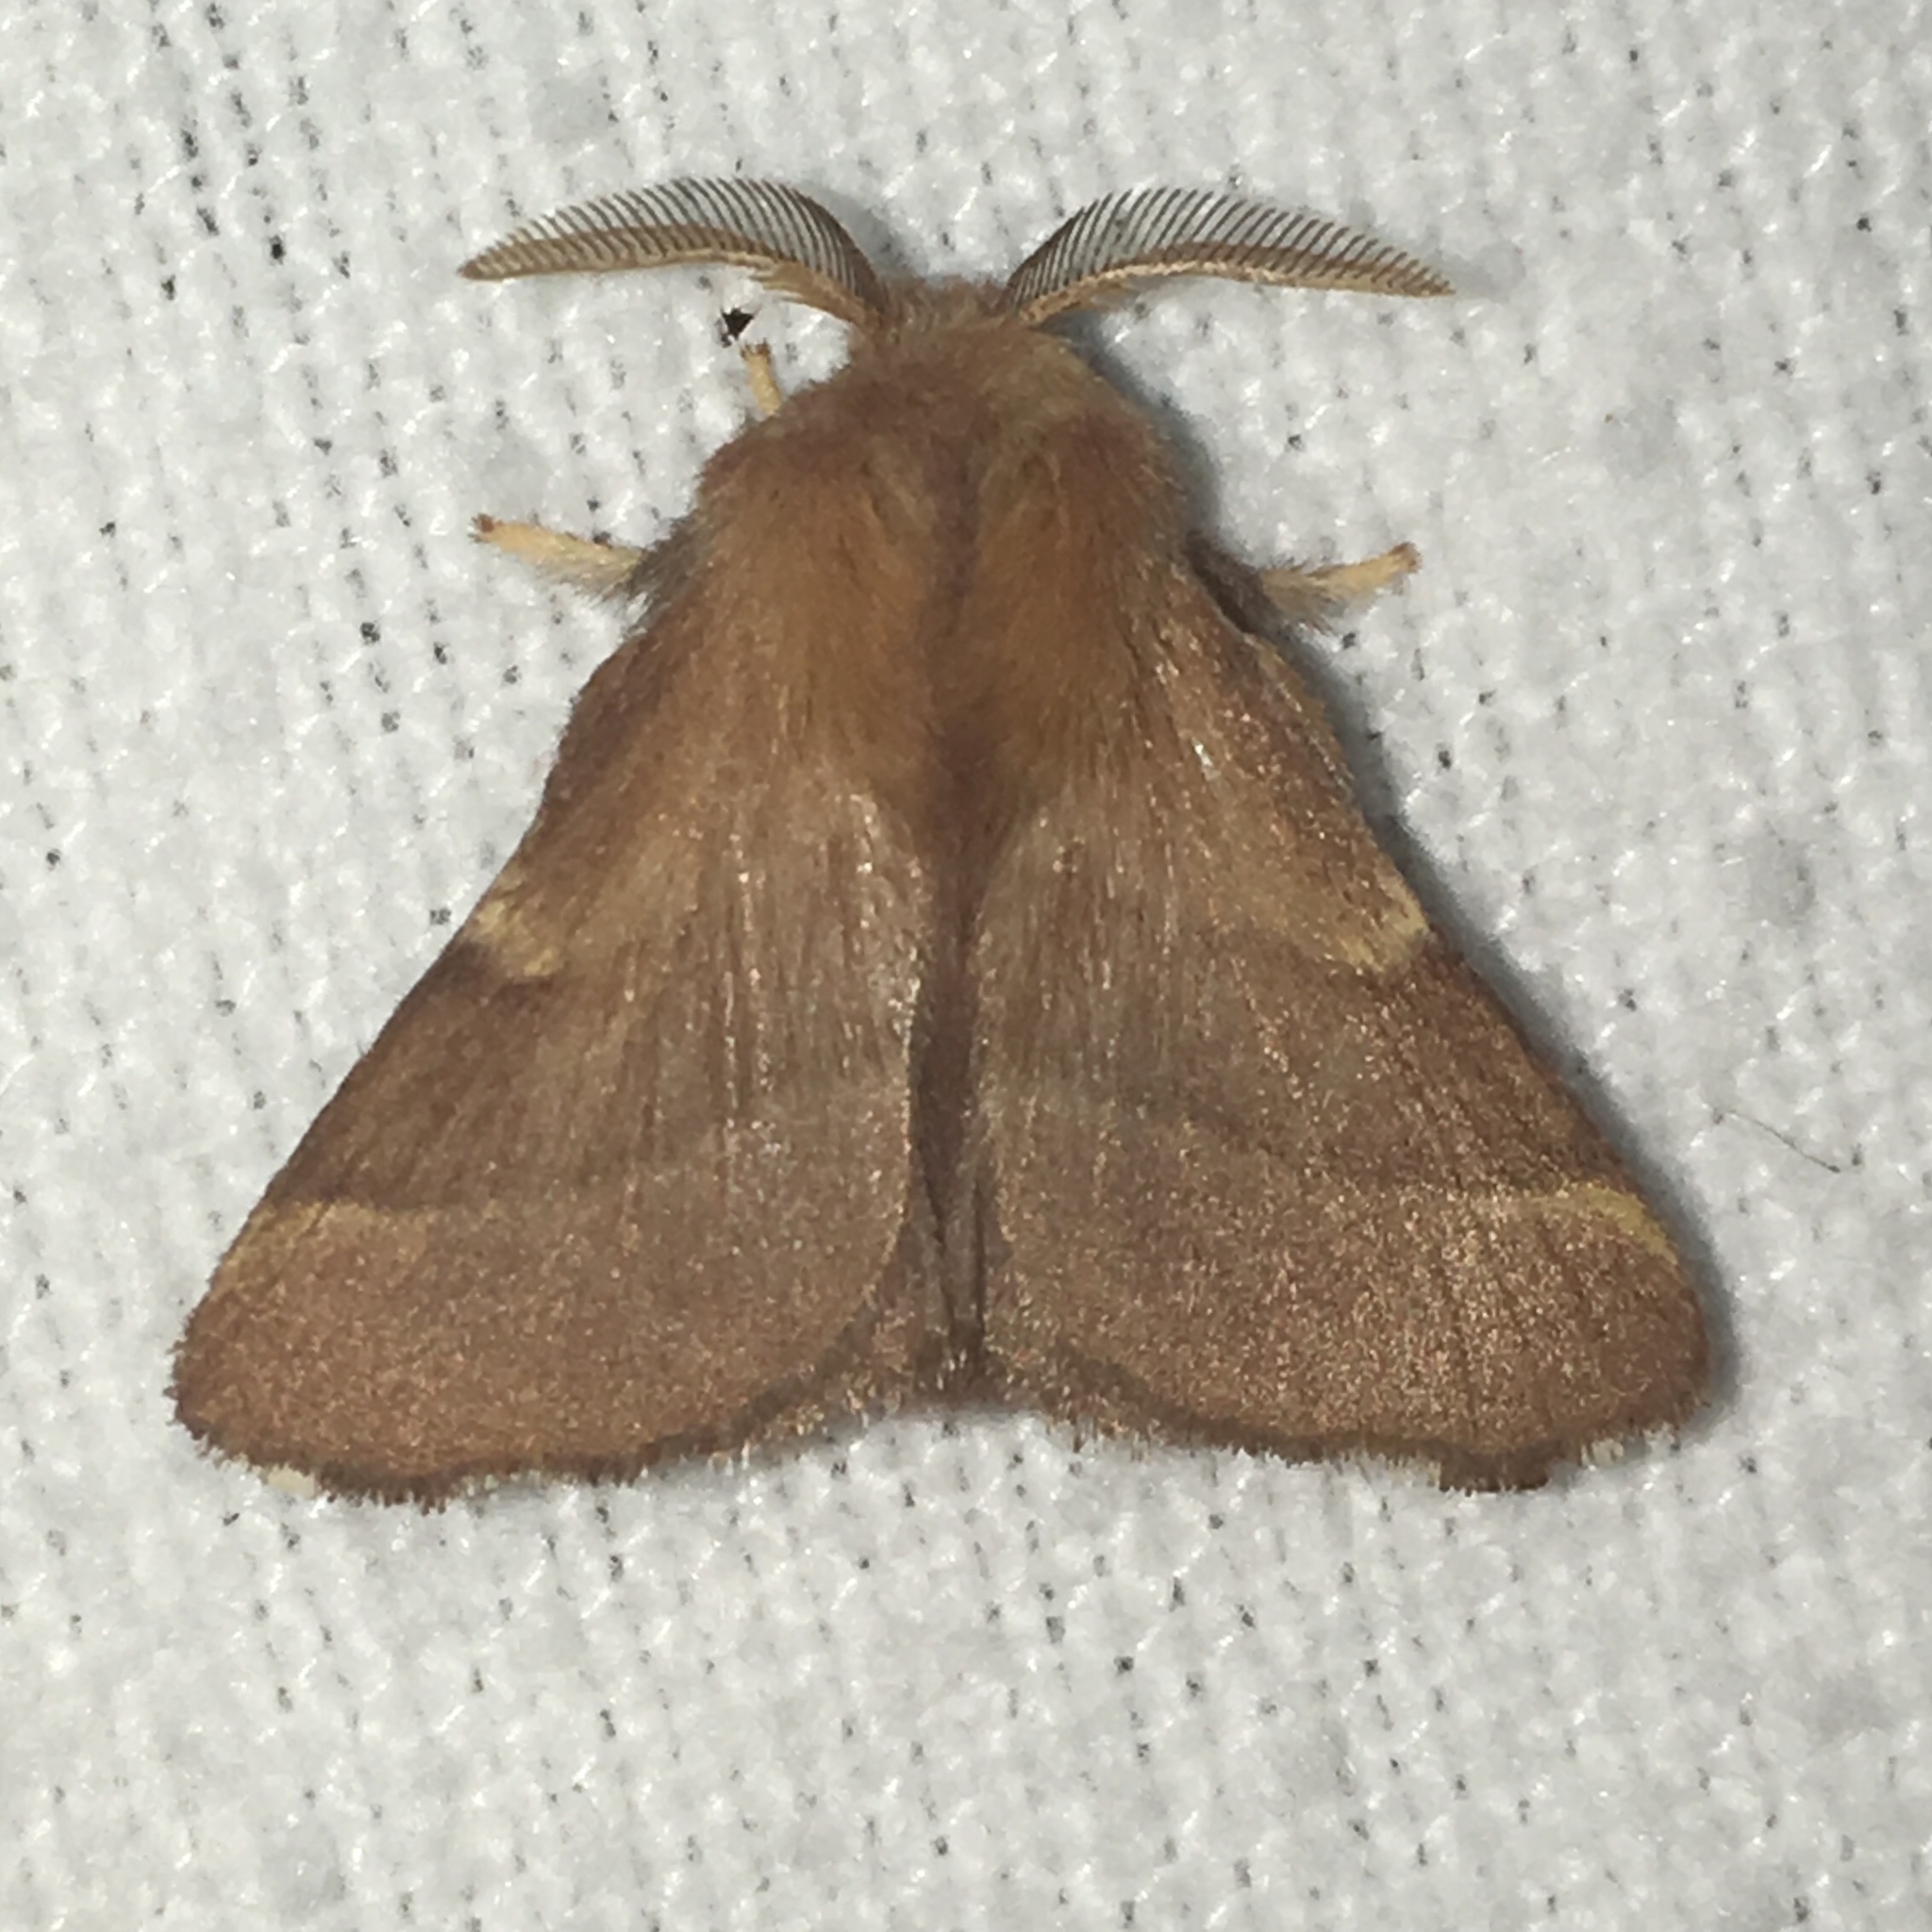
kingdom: Animalia
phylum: Arthropoda
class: Insecta
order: Lepidoptera
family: Lasiocampidae
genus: Malacosoma
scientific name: Malacosoma disstria
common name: Forest tent caterpillar
